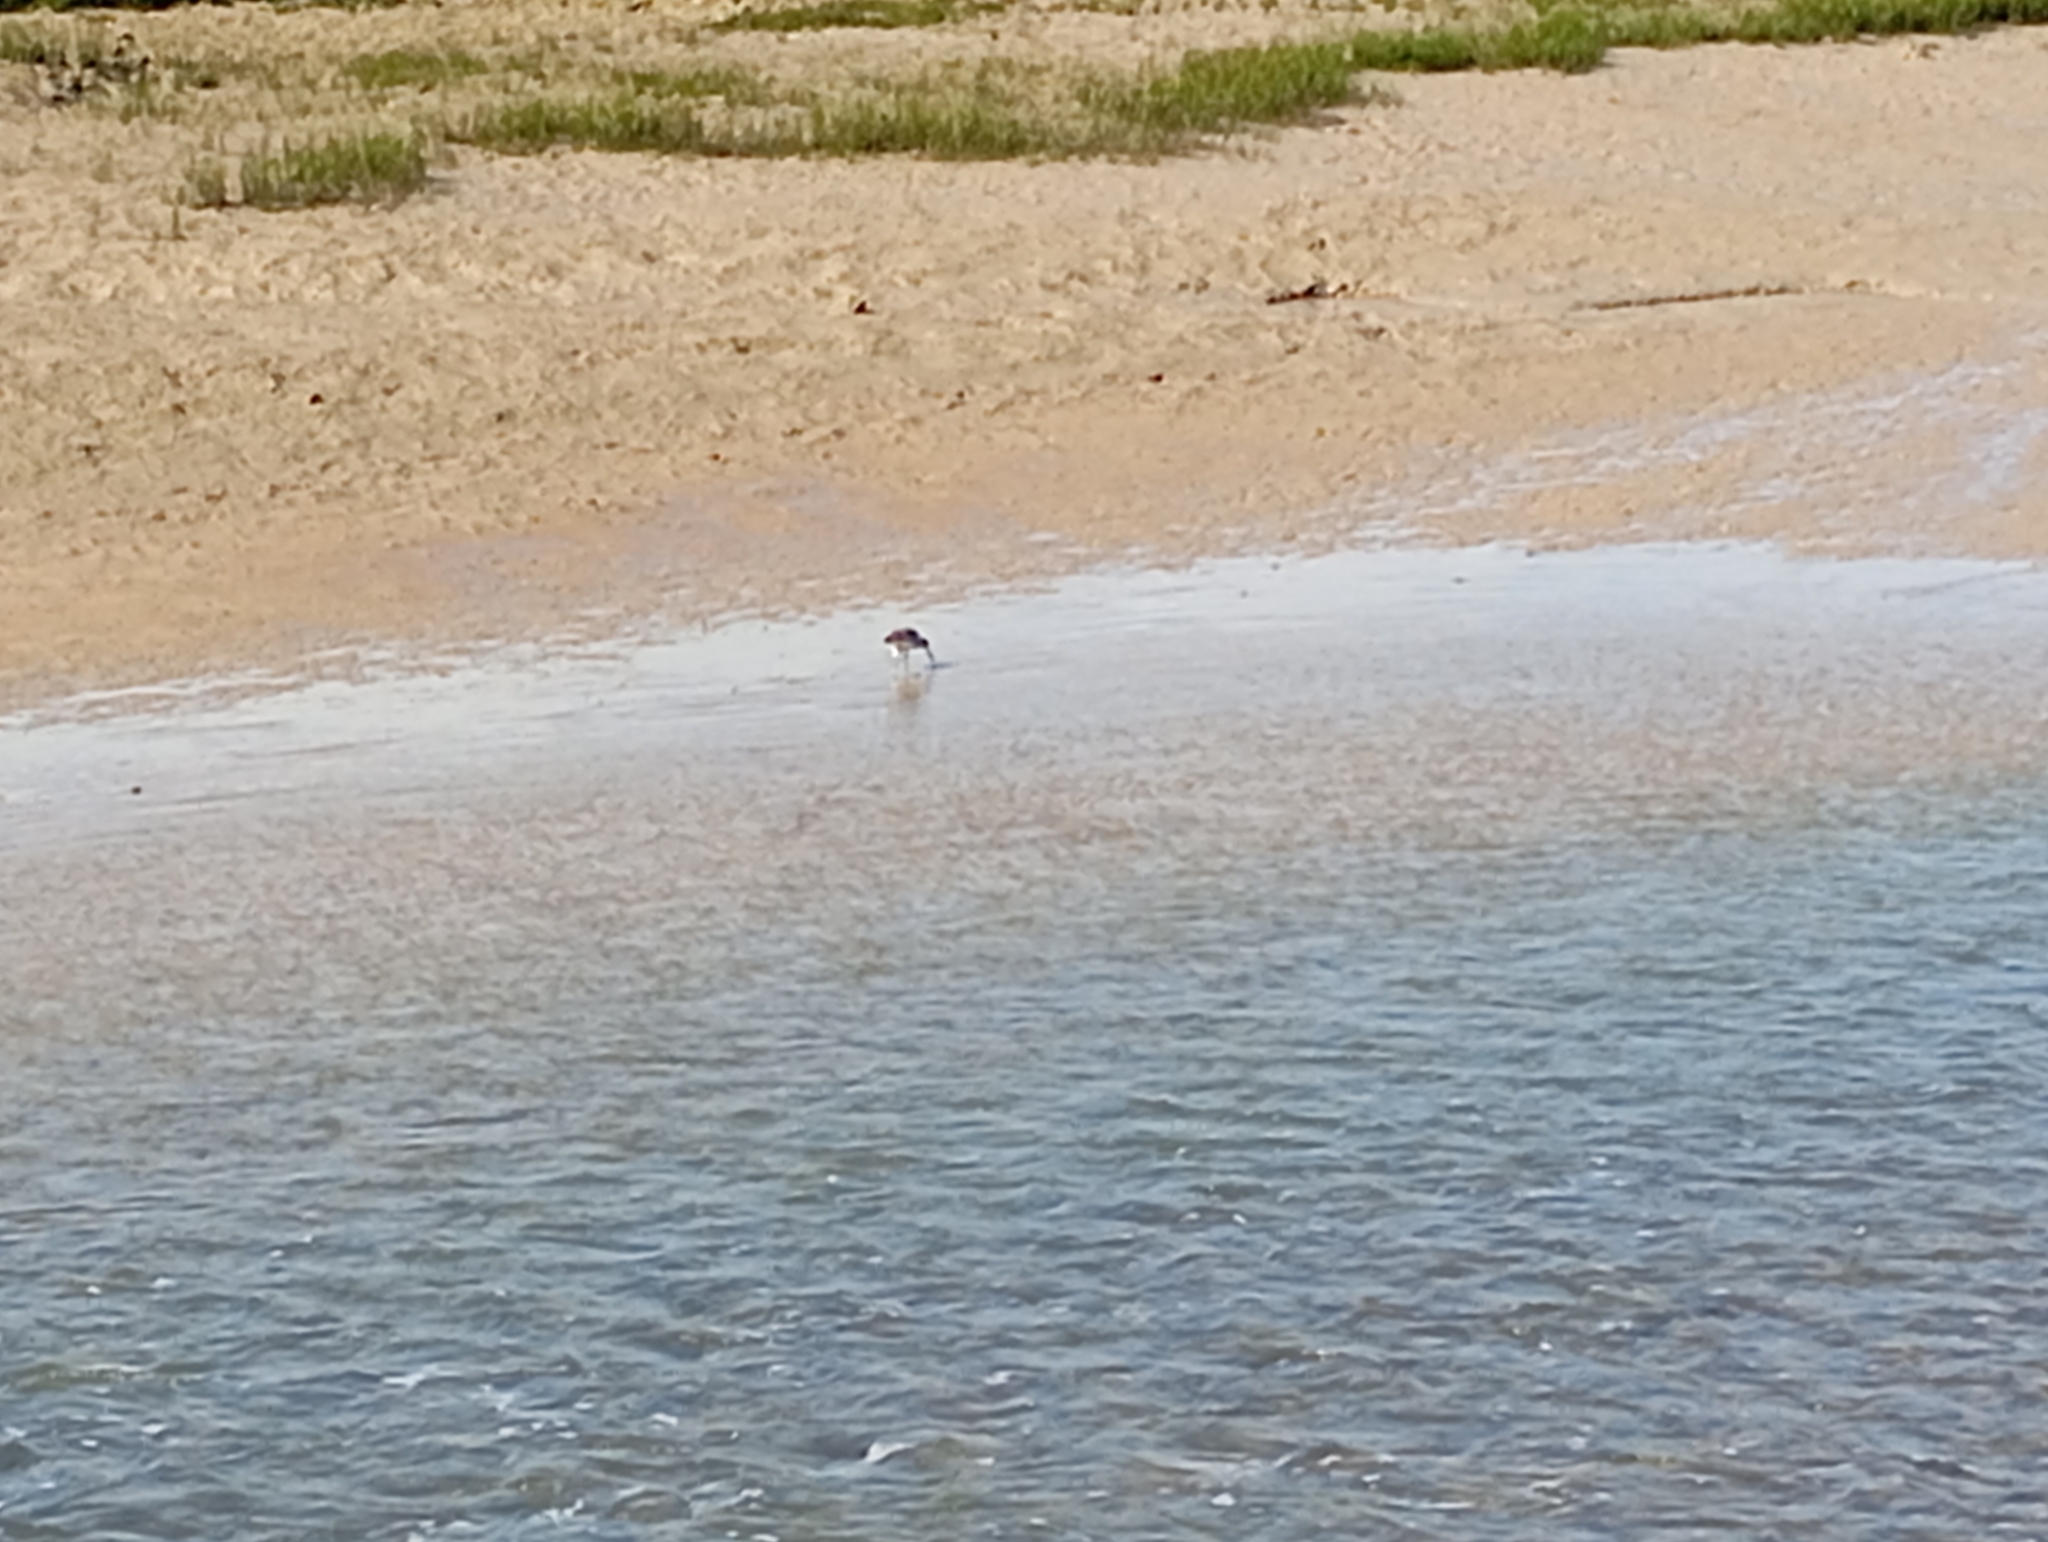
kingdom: Animalia
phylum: Chordata
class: Aves
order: Charadriiformes
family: Scolopacidae
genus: Numenius
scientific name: Numenius arquata
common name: Eurasian curlew
